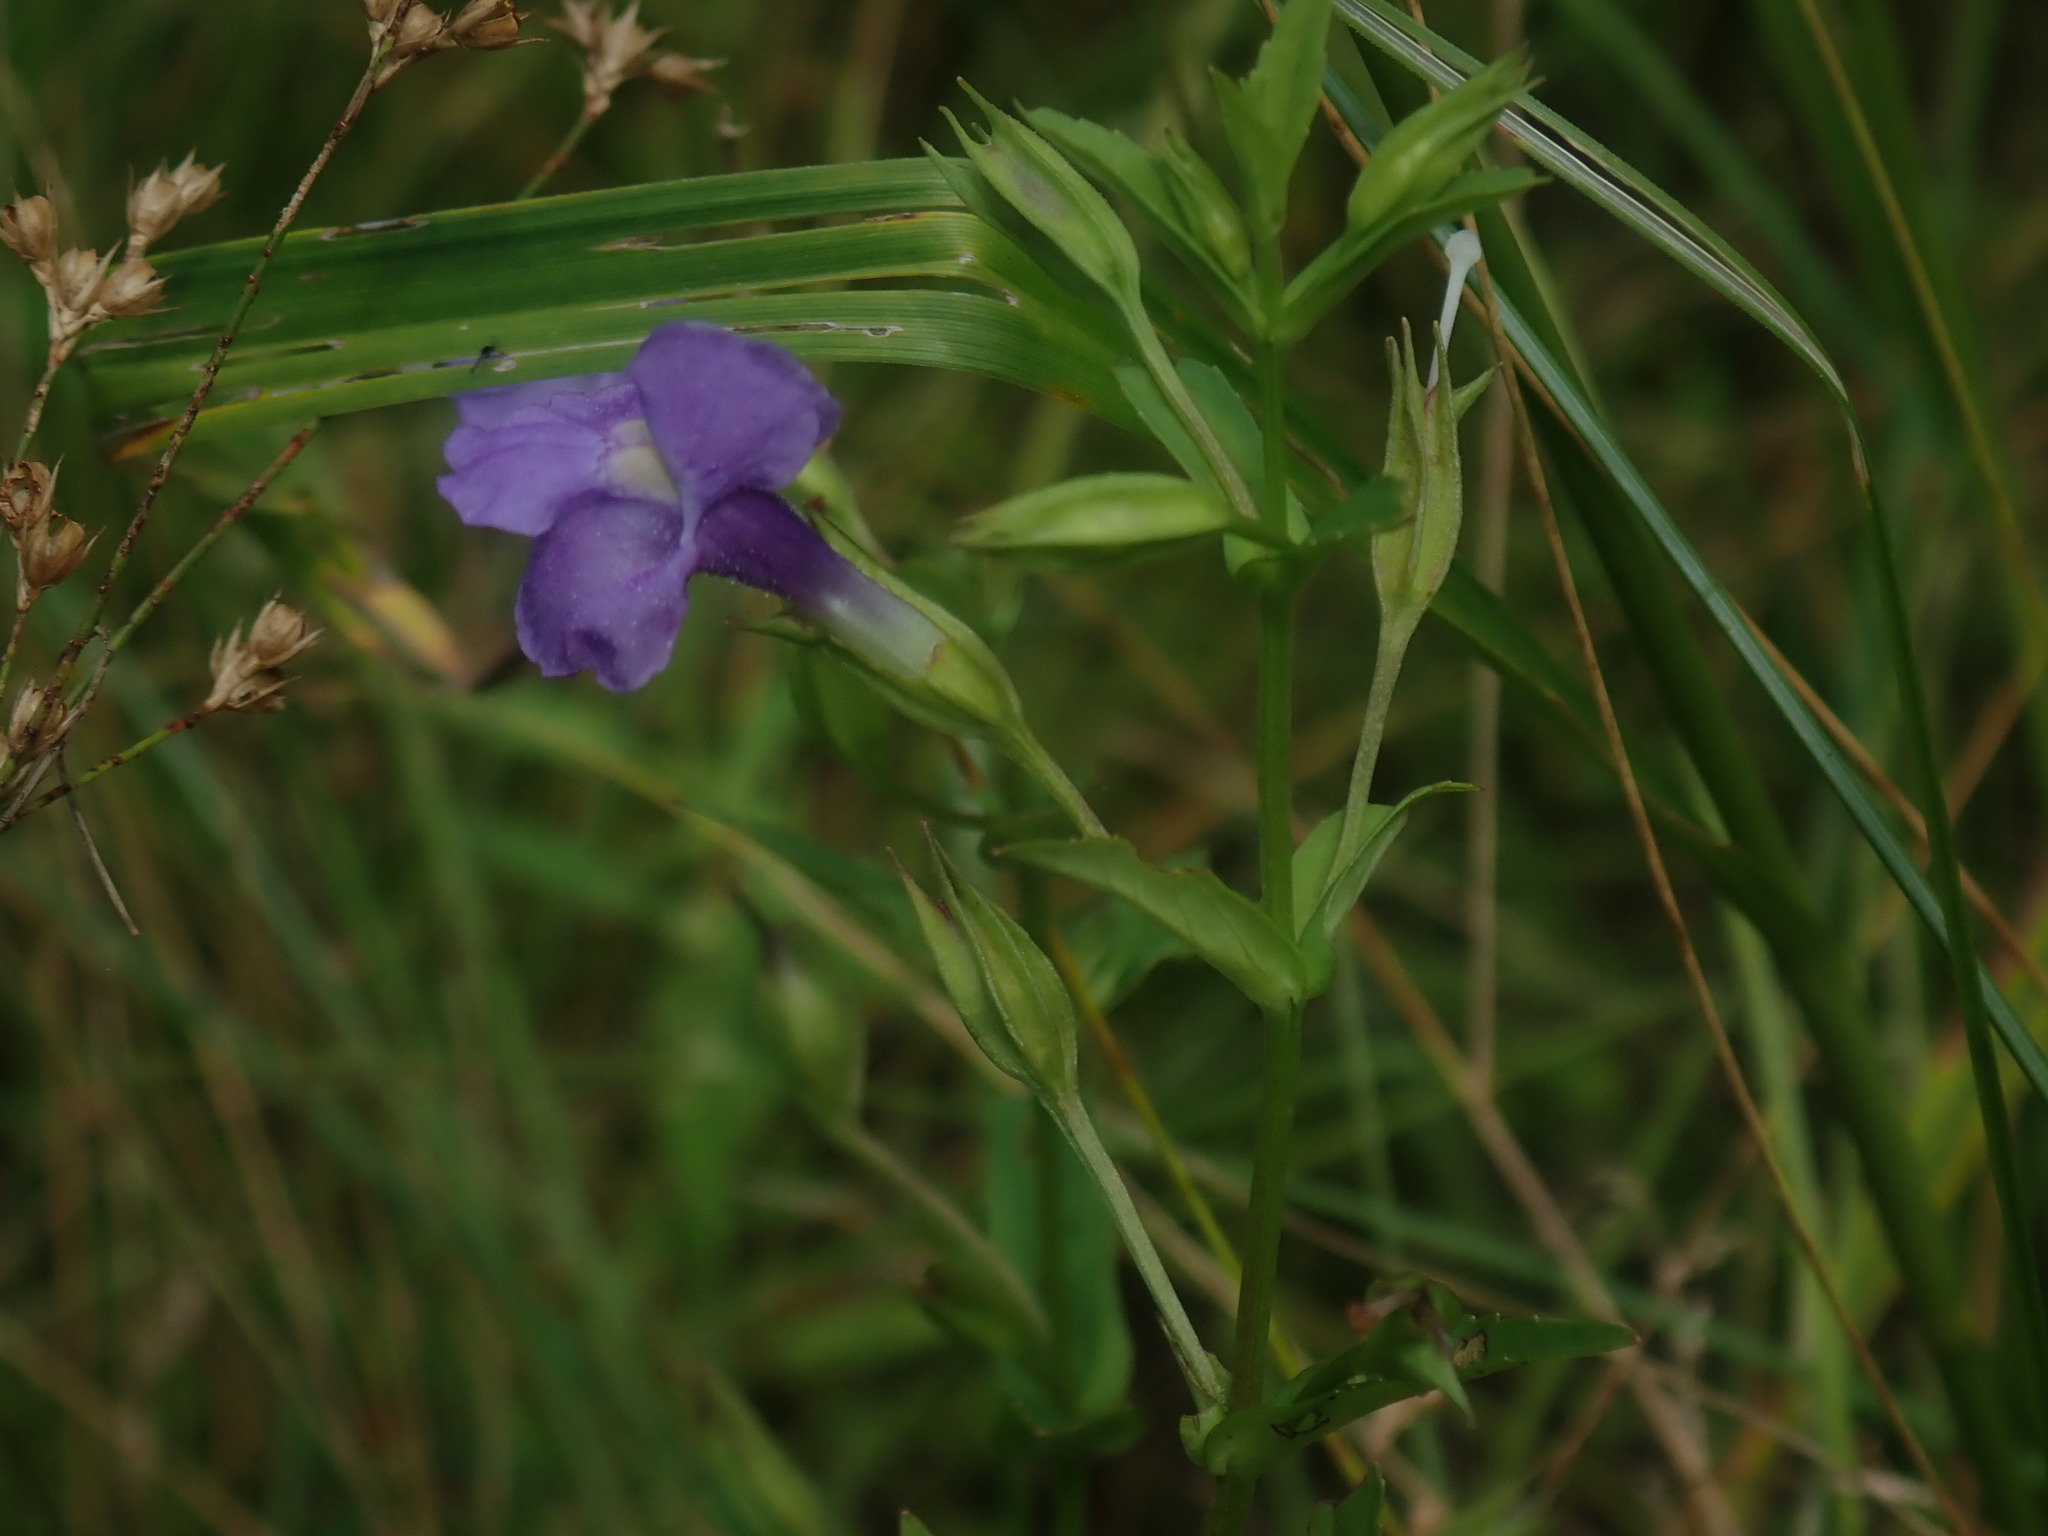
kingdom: Plantae
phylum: Tracheophyta
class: Magnoliopsida
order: Lamiales
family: Phrymaceae
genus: Mimulus
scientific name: Mimulus ringens
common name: Allegheny monkeyflower
